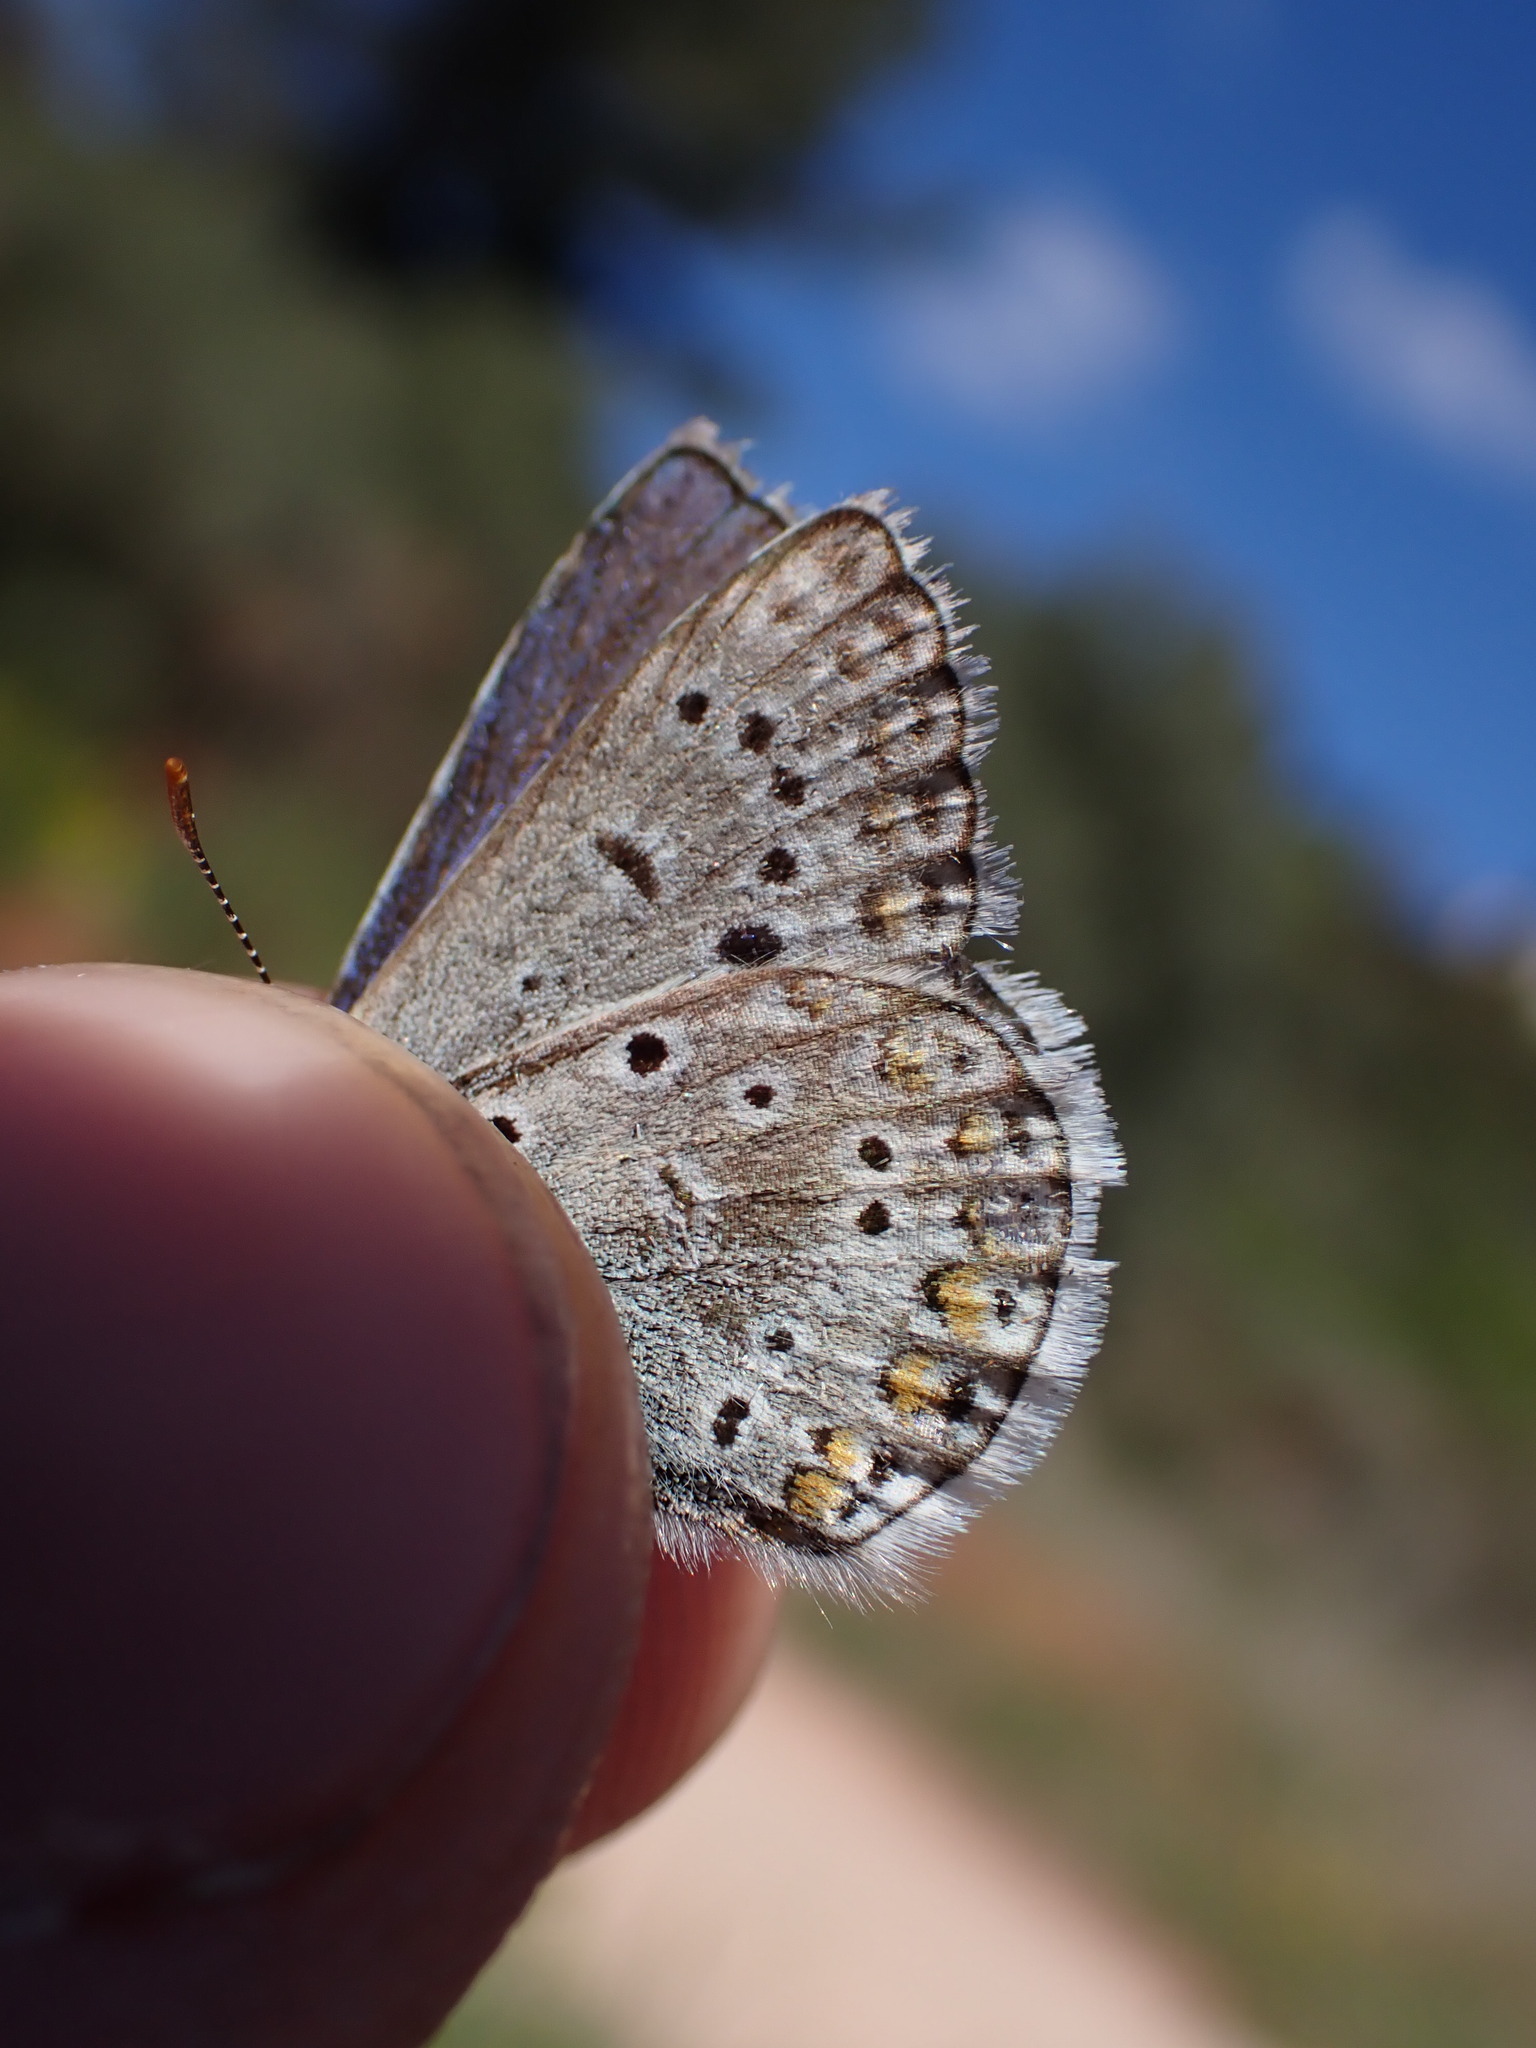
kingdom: Animalia
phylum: Arthropoda
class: Insecta
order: Lepidoptera
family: Lycaenidae
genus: Polyommatus
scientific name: Polyommatus icarus
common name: Common blue
